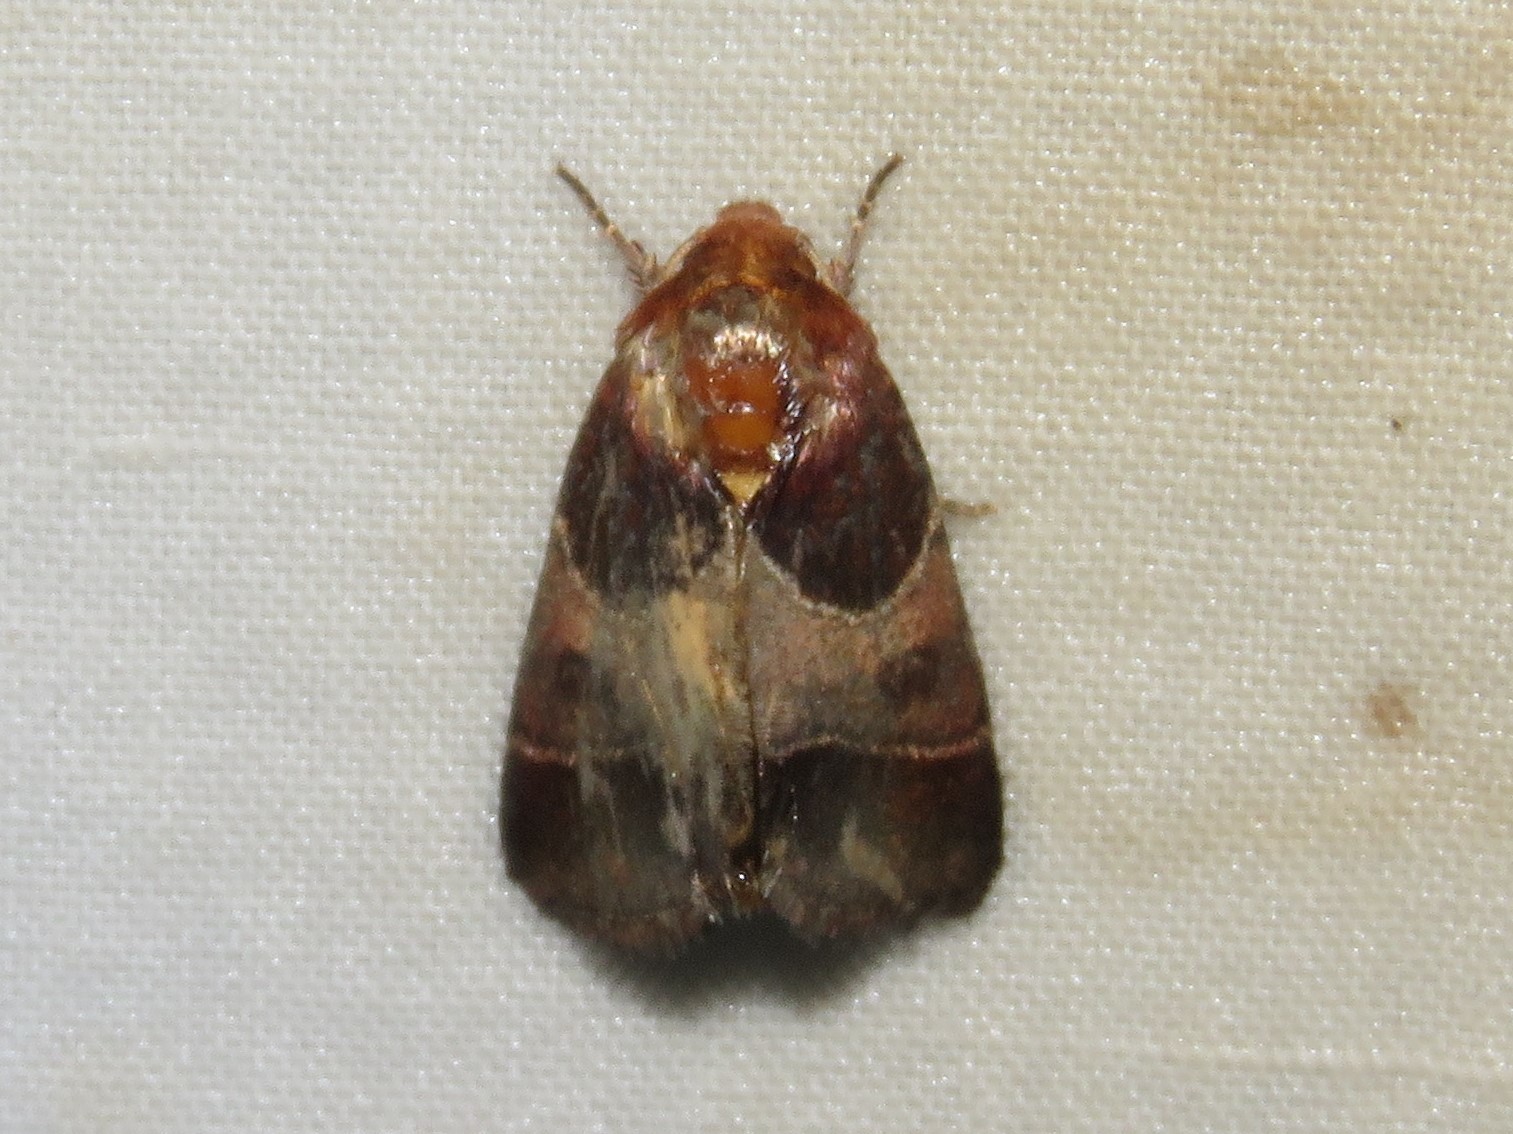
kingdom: Animalia
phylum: Arthropoda
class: Insecta
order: Lepidoptera
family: Noctuidae
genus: Schinia
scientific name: Schinia arcigera
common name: Arcigera flower moth
